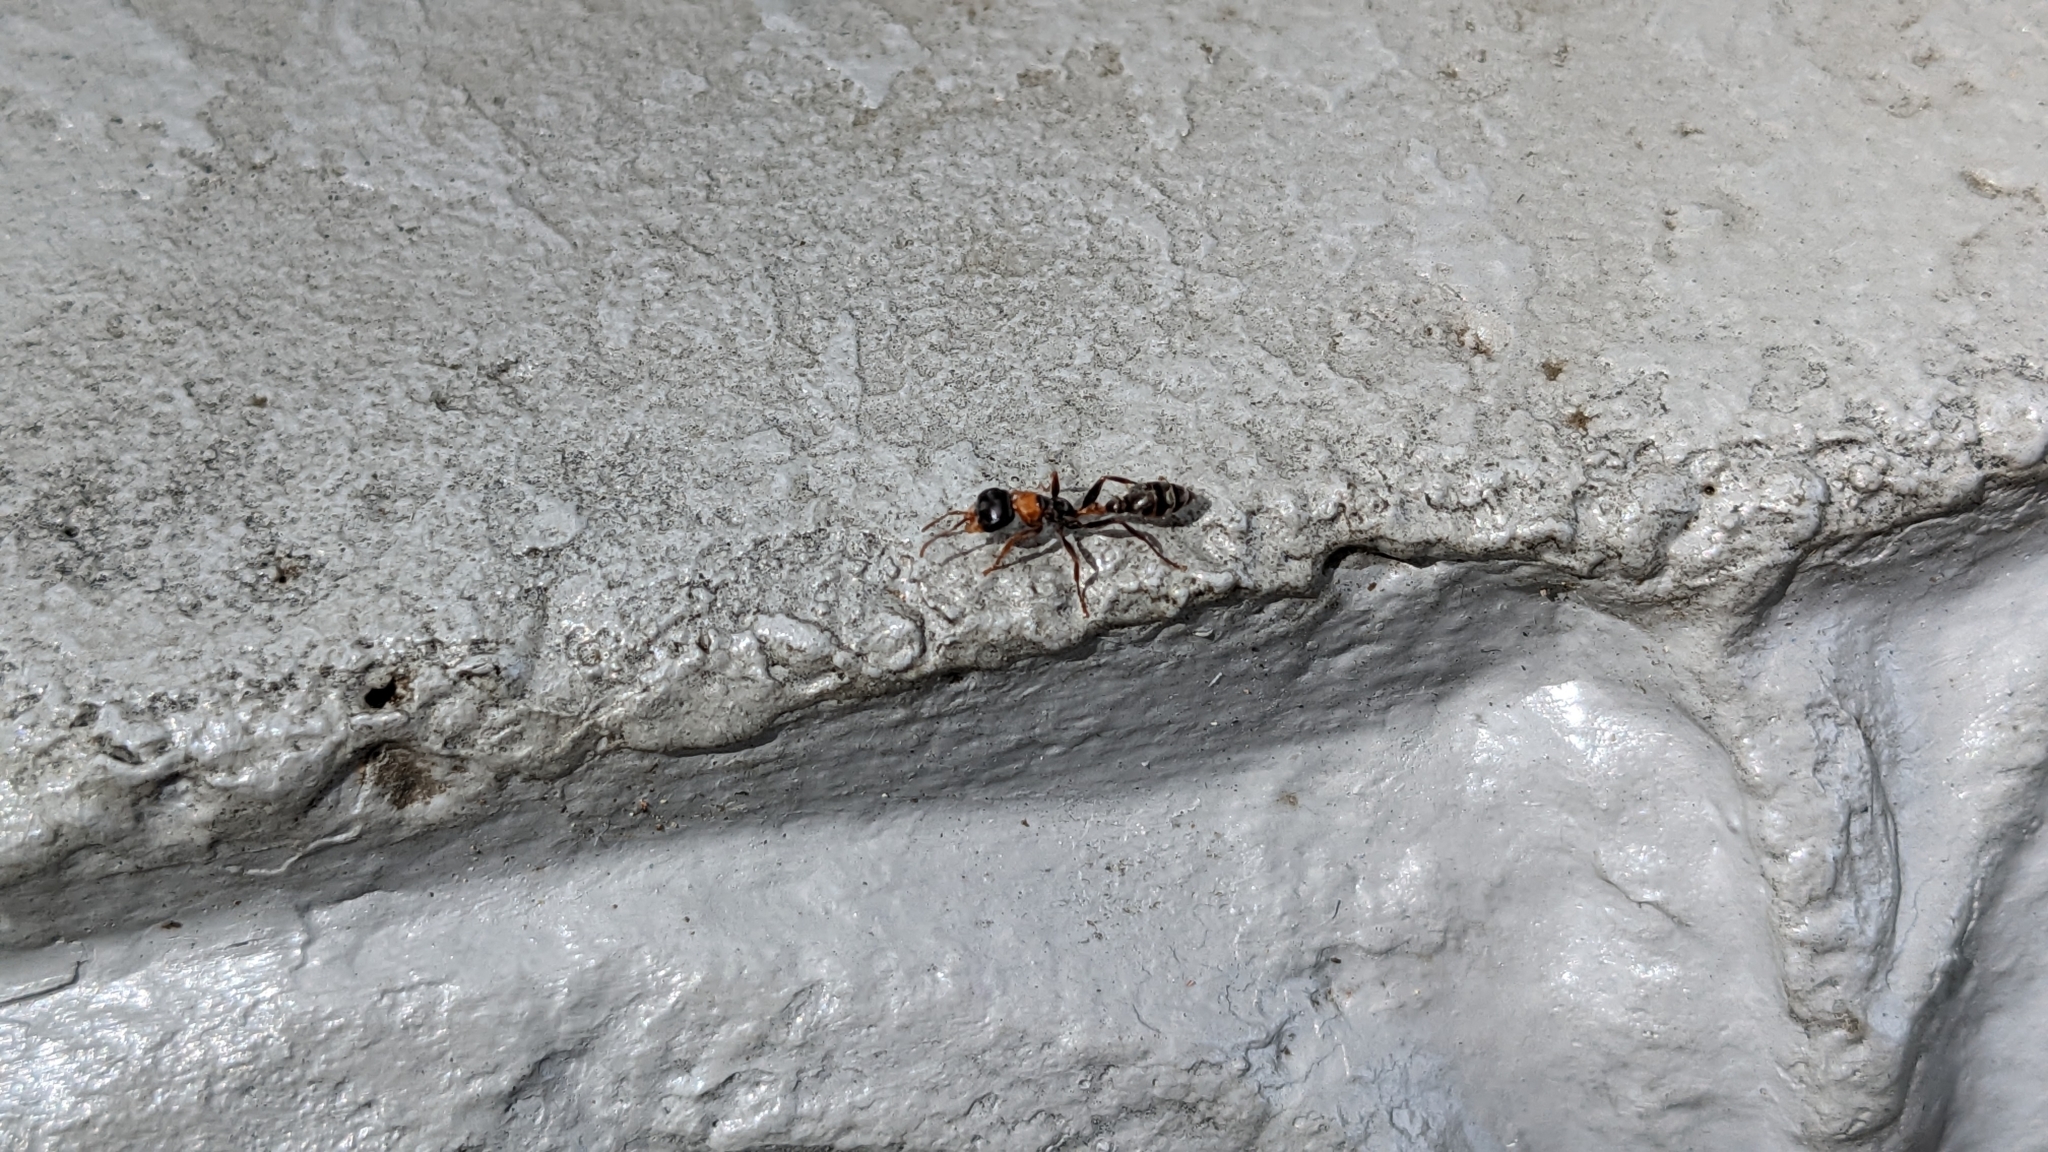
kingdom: Animalia
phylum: Arthropoda
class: Insecta
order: Hymenoptera
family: Formicidae
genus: Pseudomyrmex
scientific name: Pseudomyrmex gracilis
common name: Graceful twig ant
